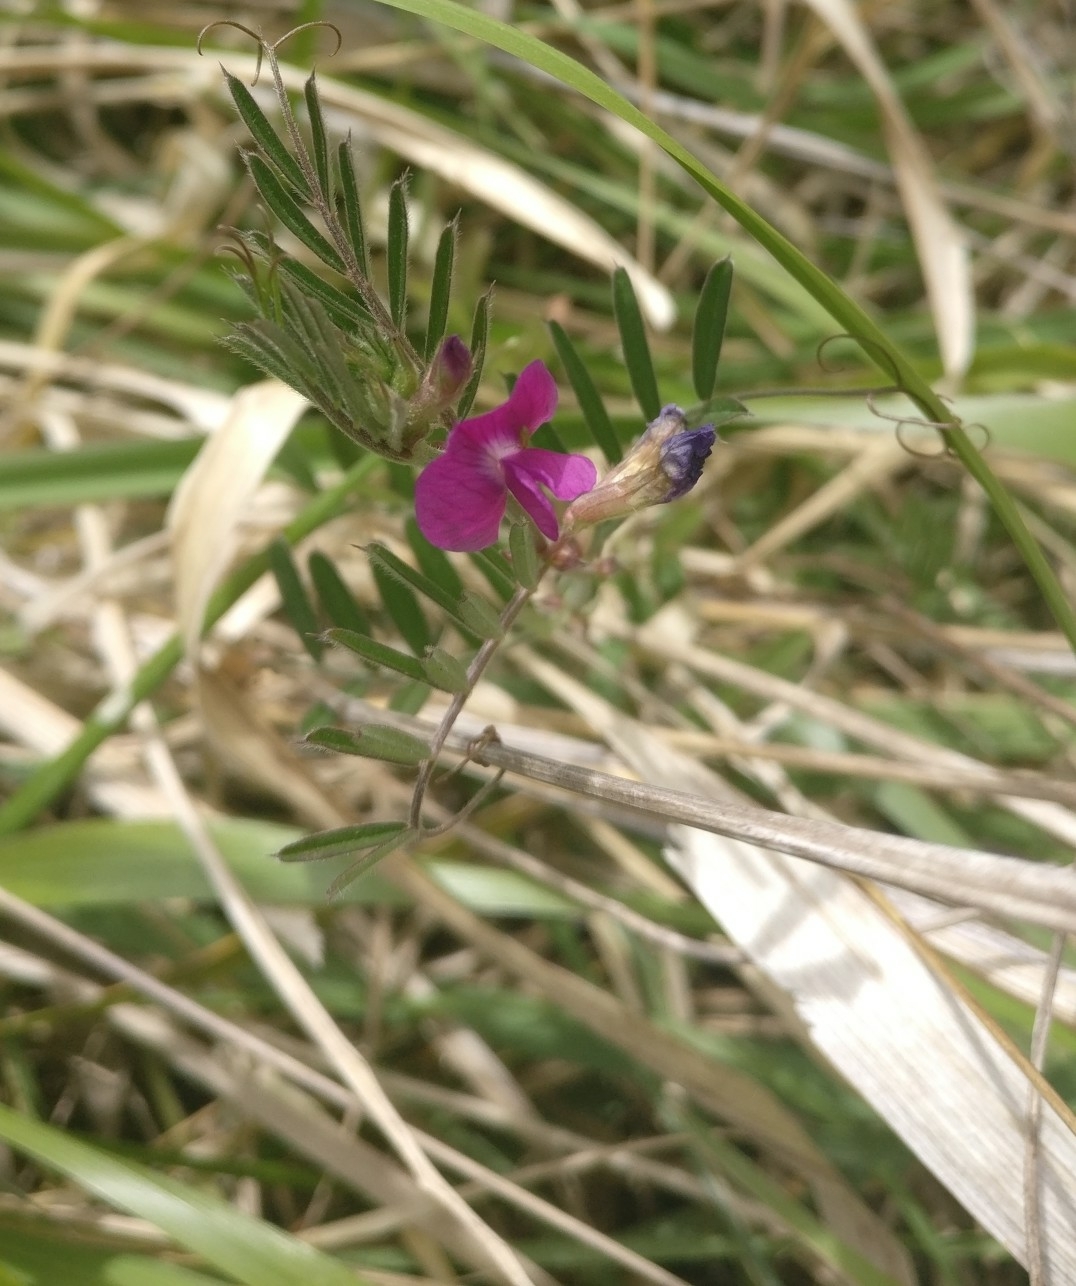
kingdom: Plantae
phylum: Tracheophyta
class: Magnoliopsida
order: Fabales
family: Fabaceae
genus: Vicia
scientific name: Vicia sativa
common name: Garden vetch
